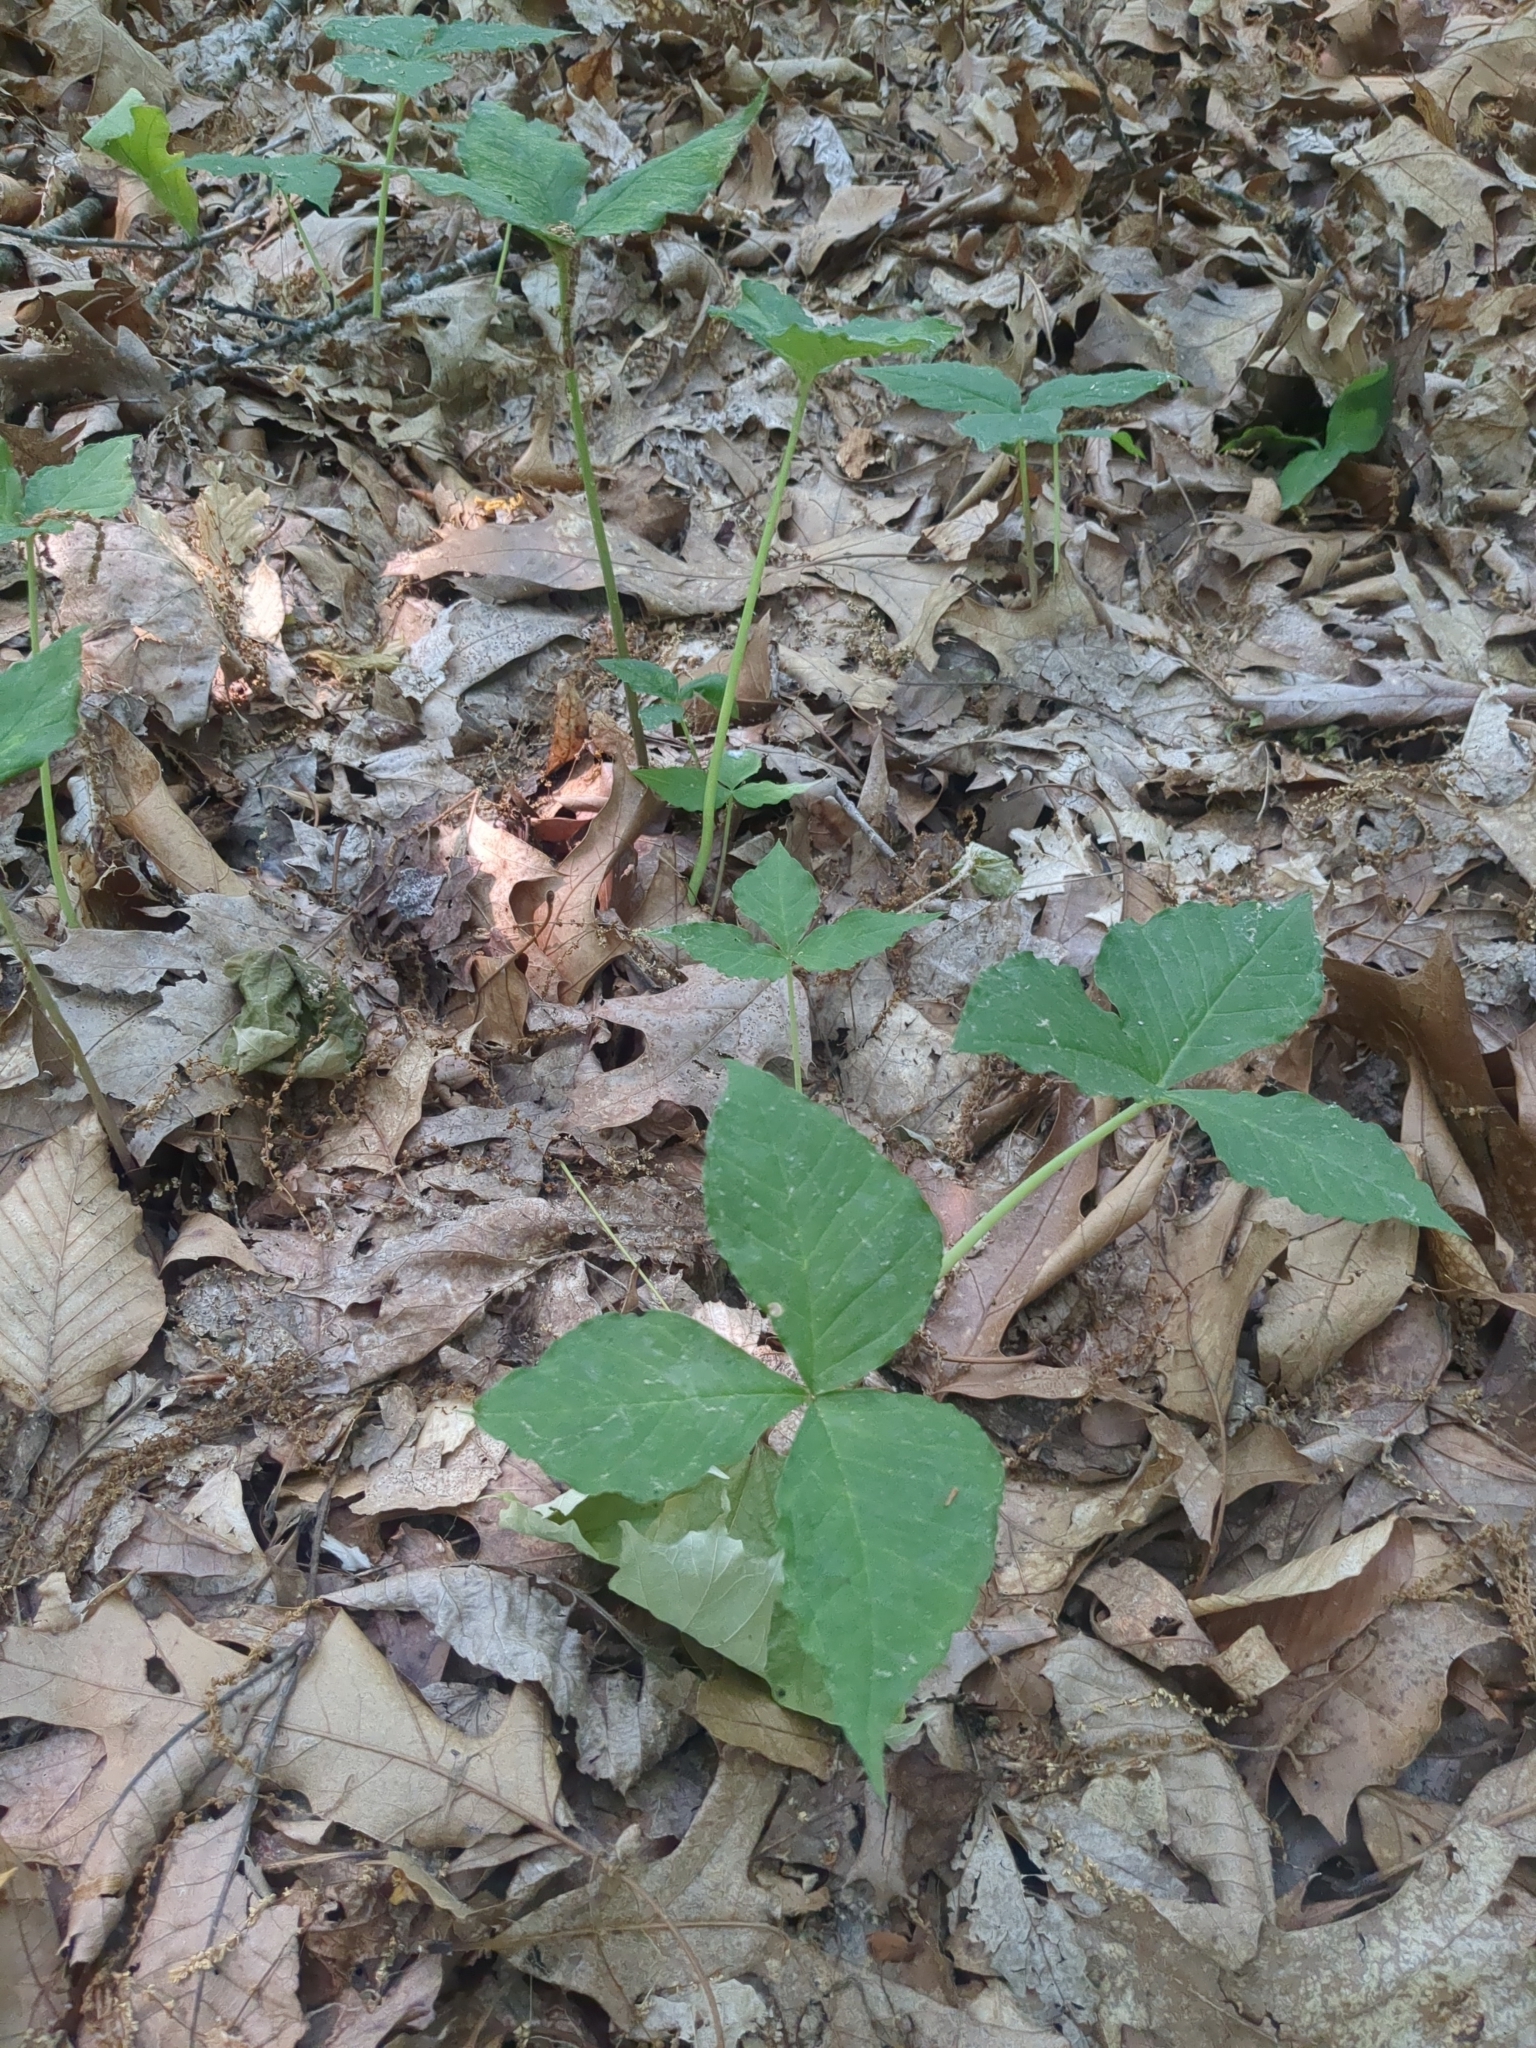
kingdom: Plantae
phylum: Tracheophyta
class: Liliopsida
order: Alismatales
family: Araceae
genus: Arisaema
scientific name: Arisaema triphyllum
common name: Jack-in-the-pulpit
